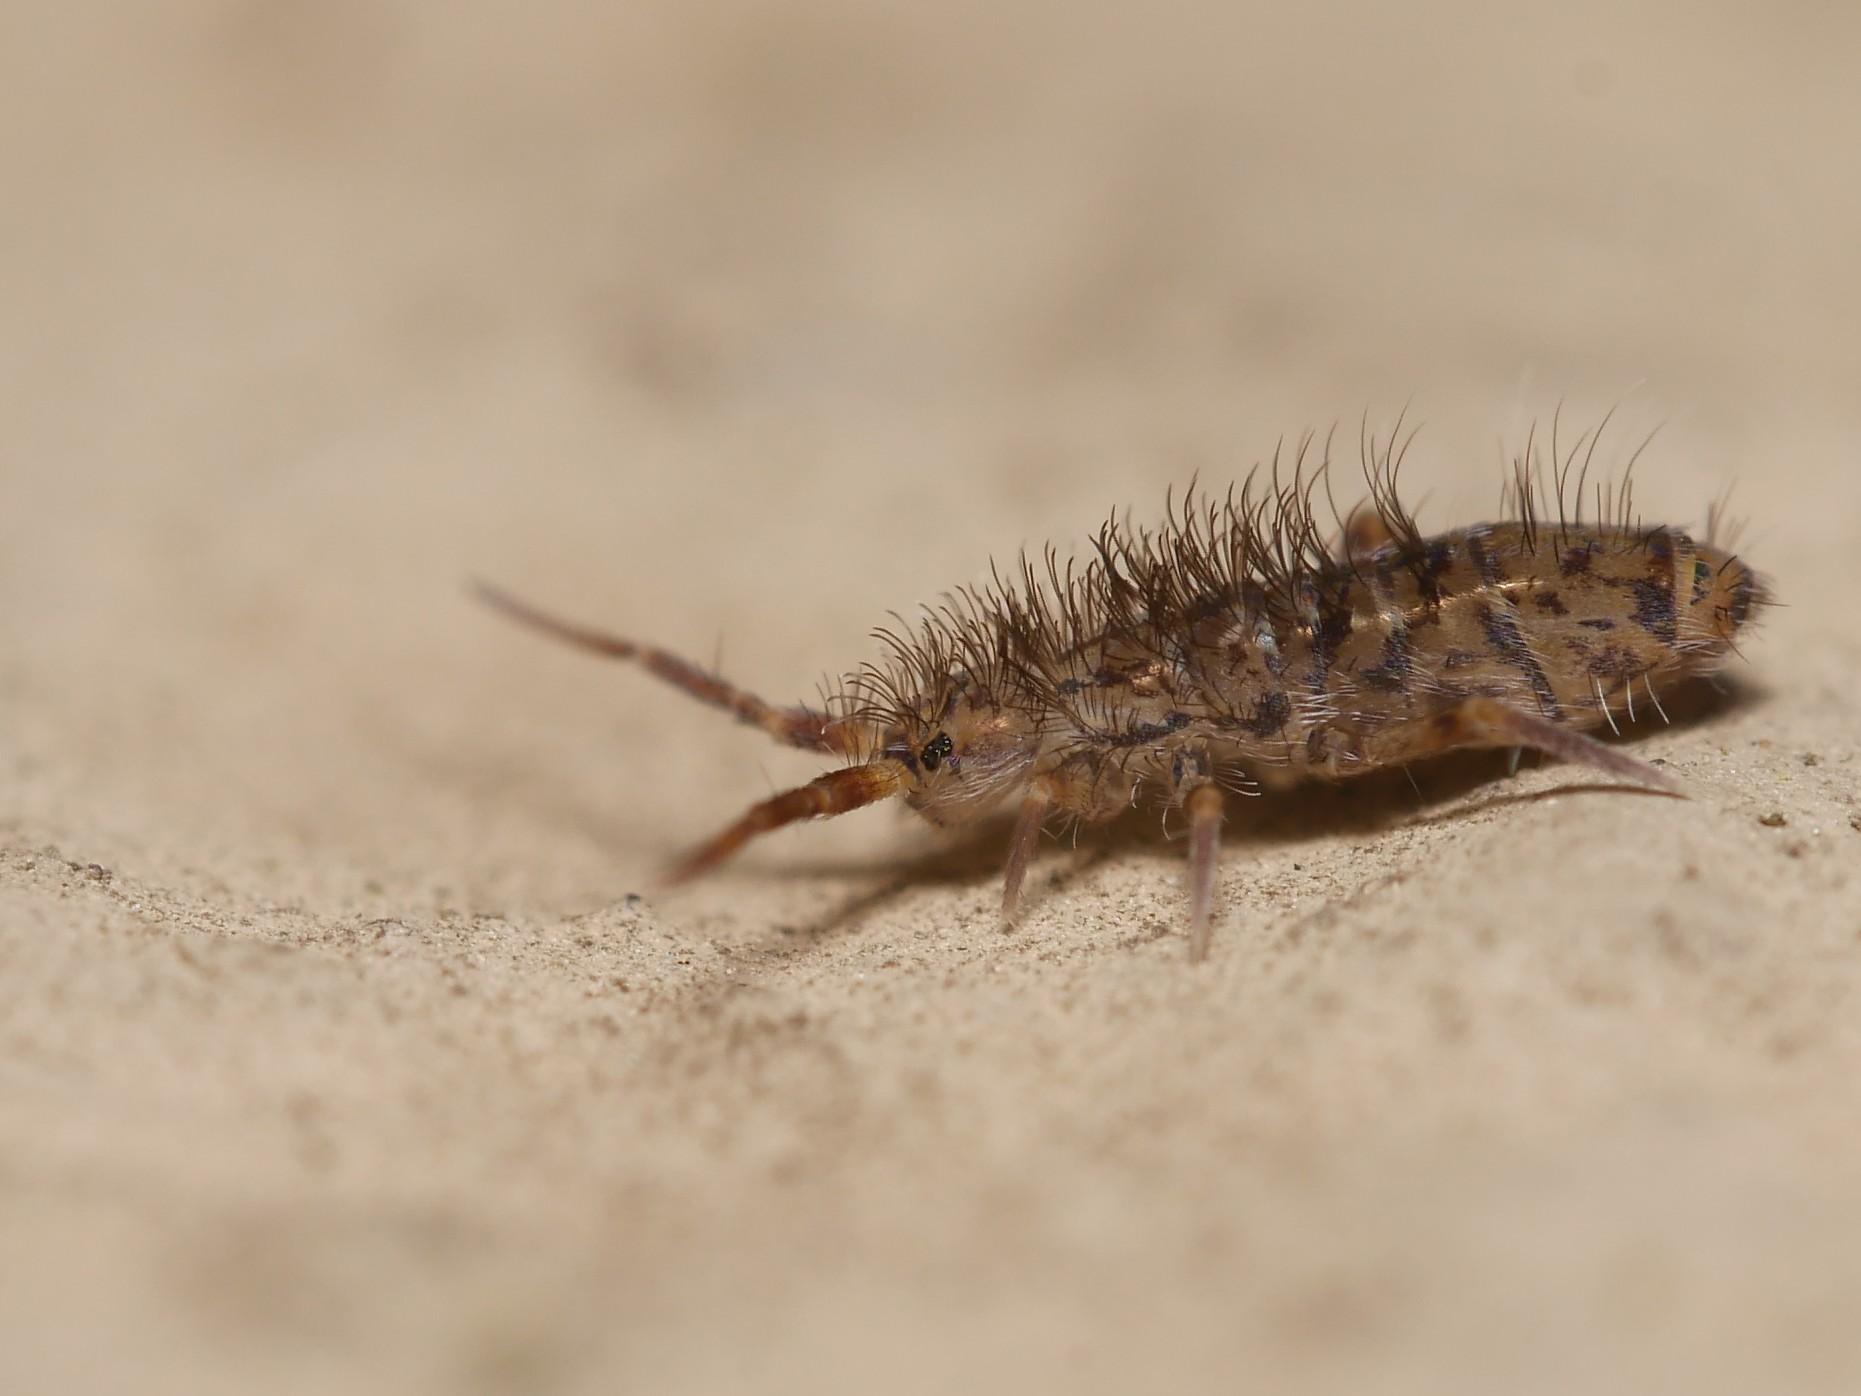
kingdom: Animalia
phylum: Arthropoda
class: Collembola
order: Entomobryomorpha
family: Orchesellidae
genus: Orchesella
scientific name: Orchesella villosa
